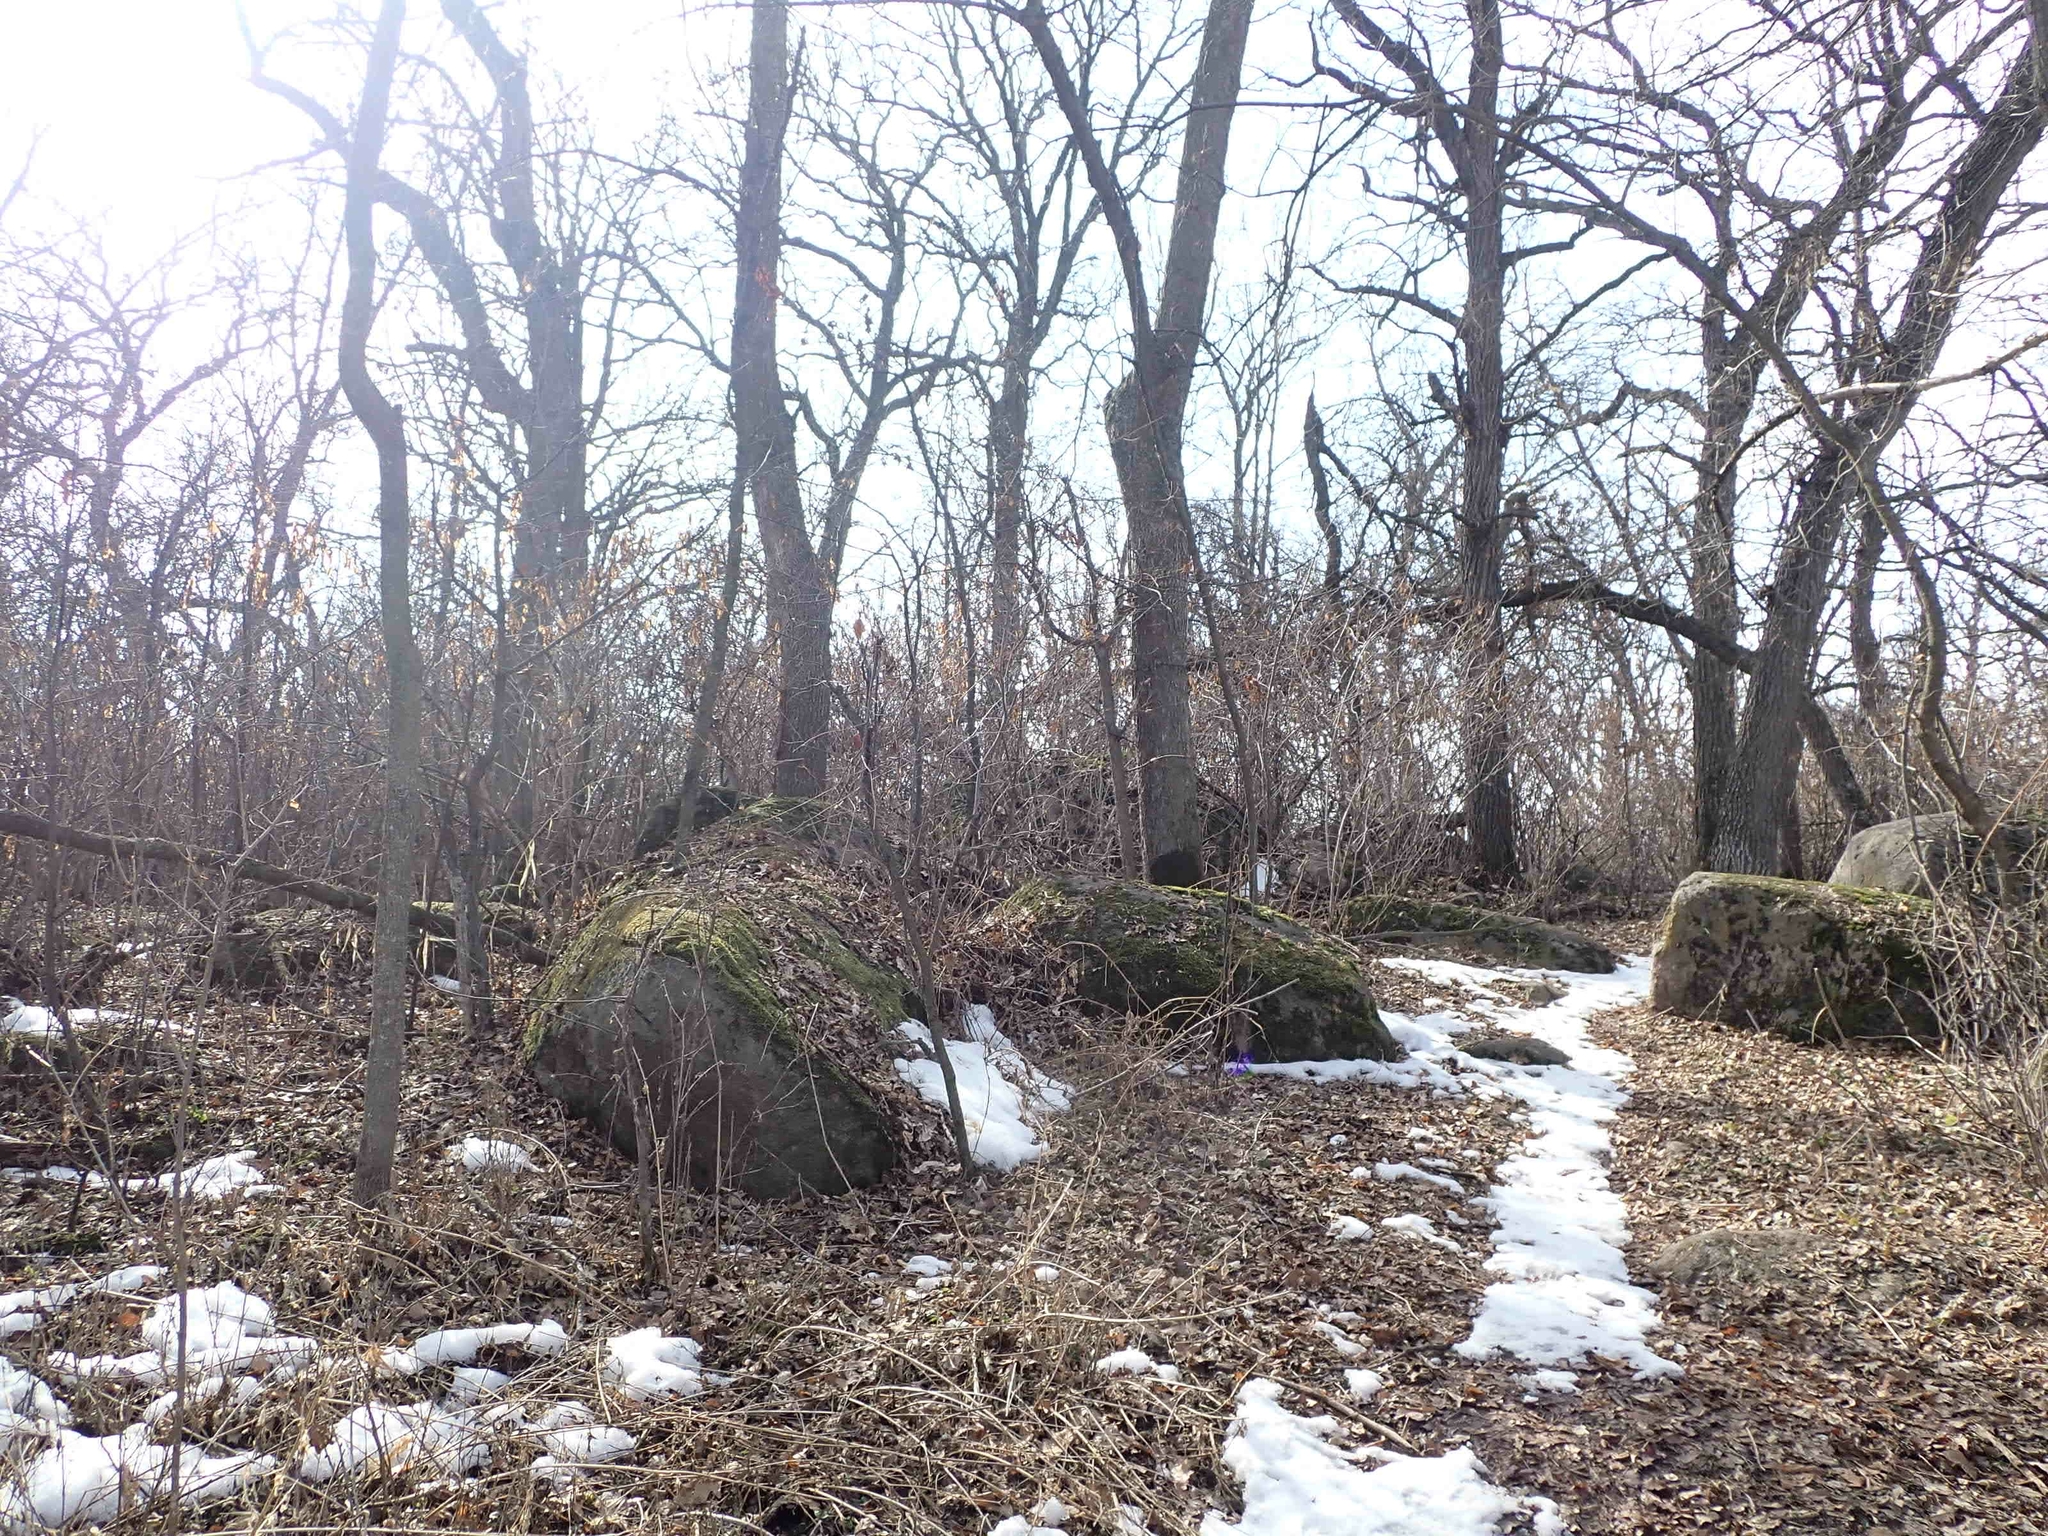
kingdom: Plantae
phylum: Tracheophyta
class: Magnoliopsida
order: Fagales
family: Fagaceae
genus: Quercus
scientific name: Quercus macrocarpa
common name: Bur oak
